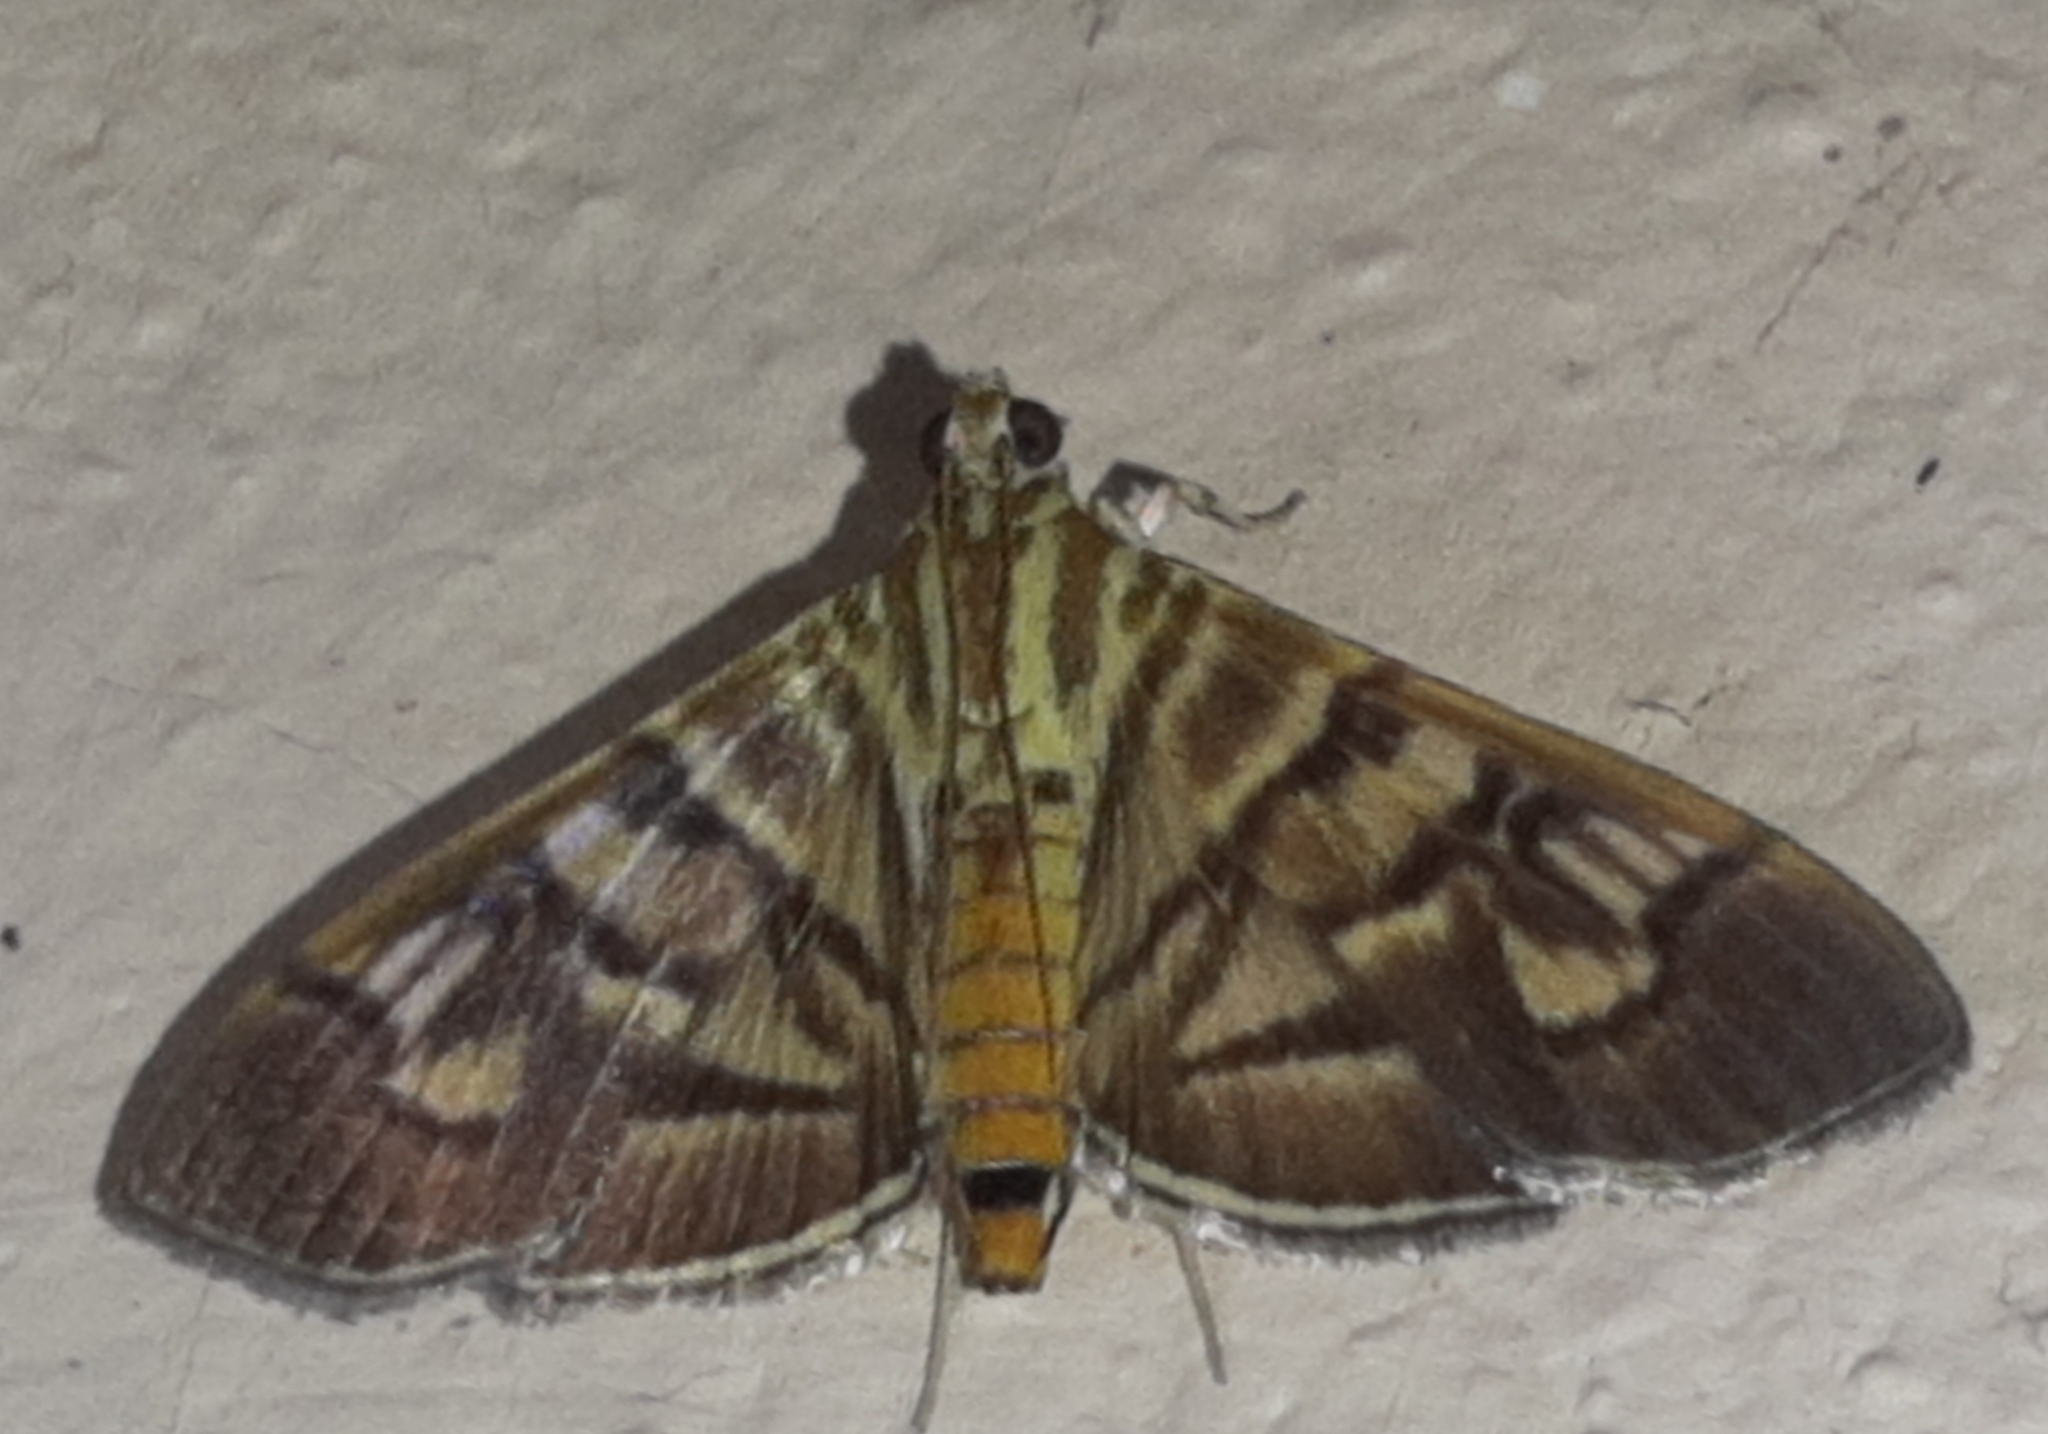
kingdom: Animalia
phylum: Arthropoda
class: Insecta
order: Lepidoptera
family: Crambidae
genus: Pilocrocis
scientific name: Pilocrocis lauralis
